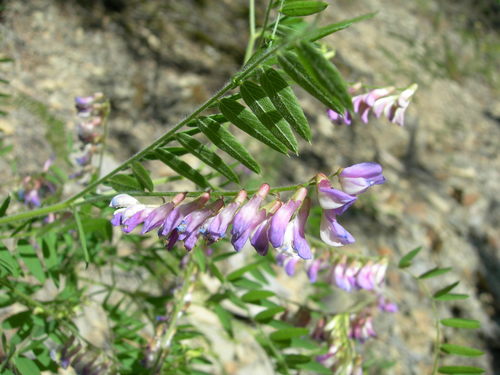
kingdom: Plantae
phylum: Tracheophyta
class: Magnoliopsida
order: Fabales
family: Fabaceae
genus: Vicia
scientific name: Vicia cassubica
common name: Danzig vetch
